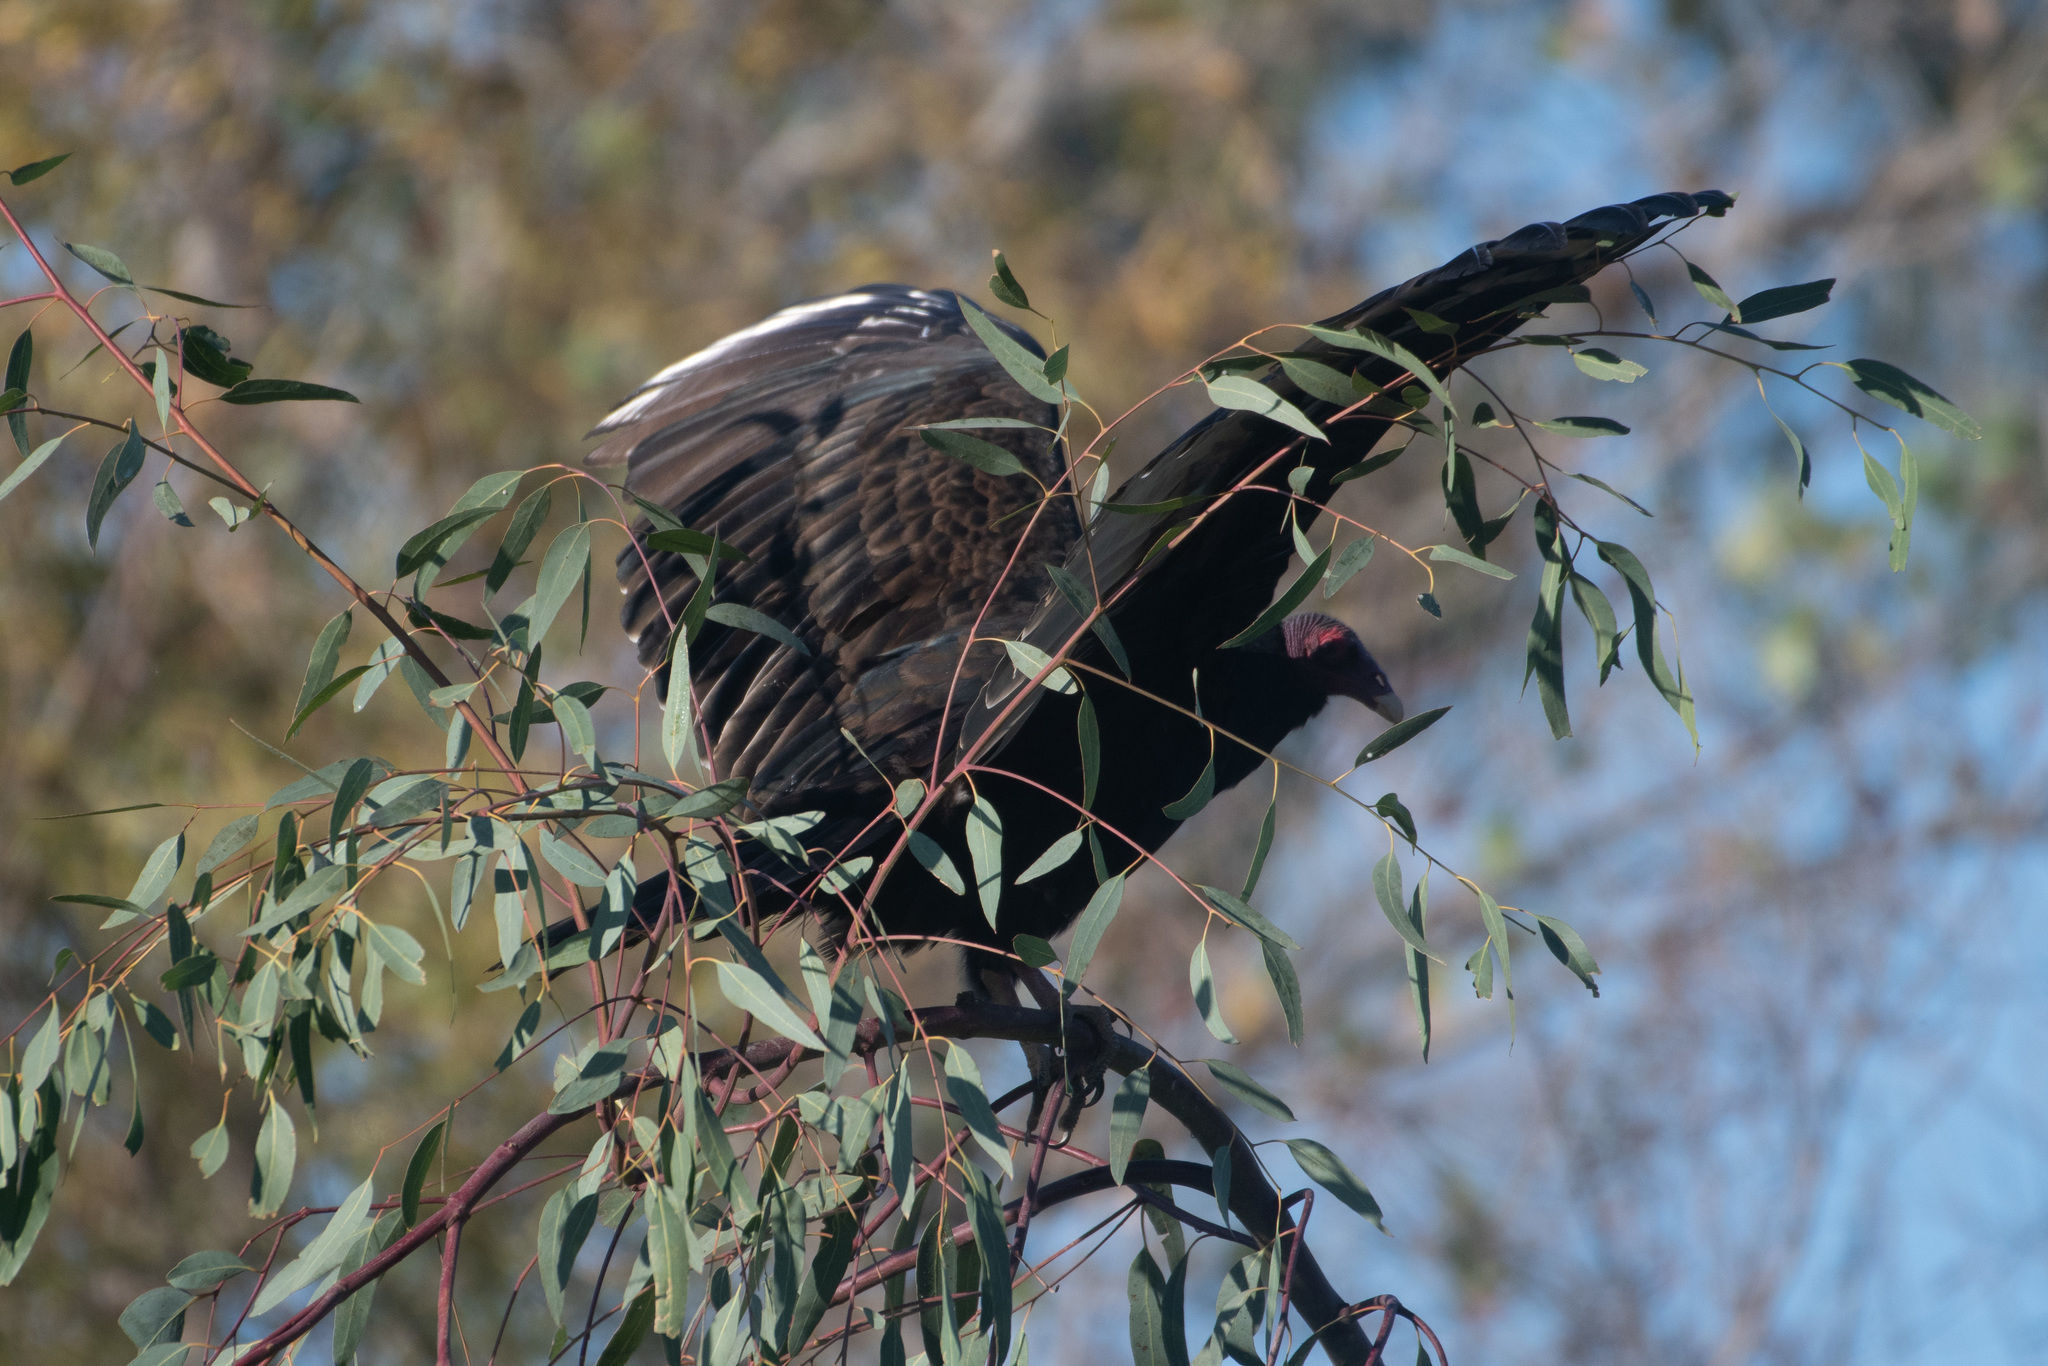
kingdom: Animalia
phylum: Chordata
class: Aves
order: Accipitriformes
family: Cathartidae
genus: Cathartes
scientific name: Cathartes aura
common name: Turkey vulture
